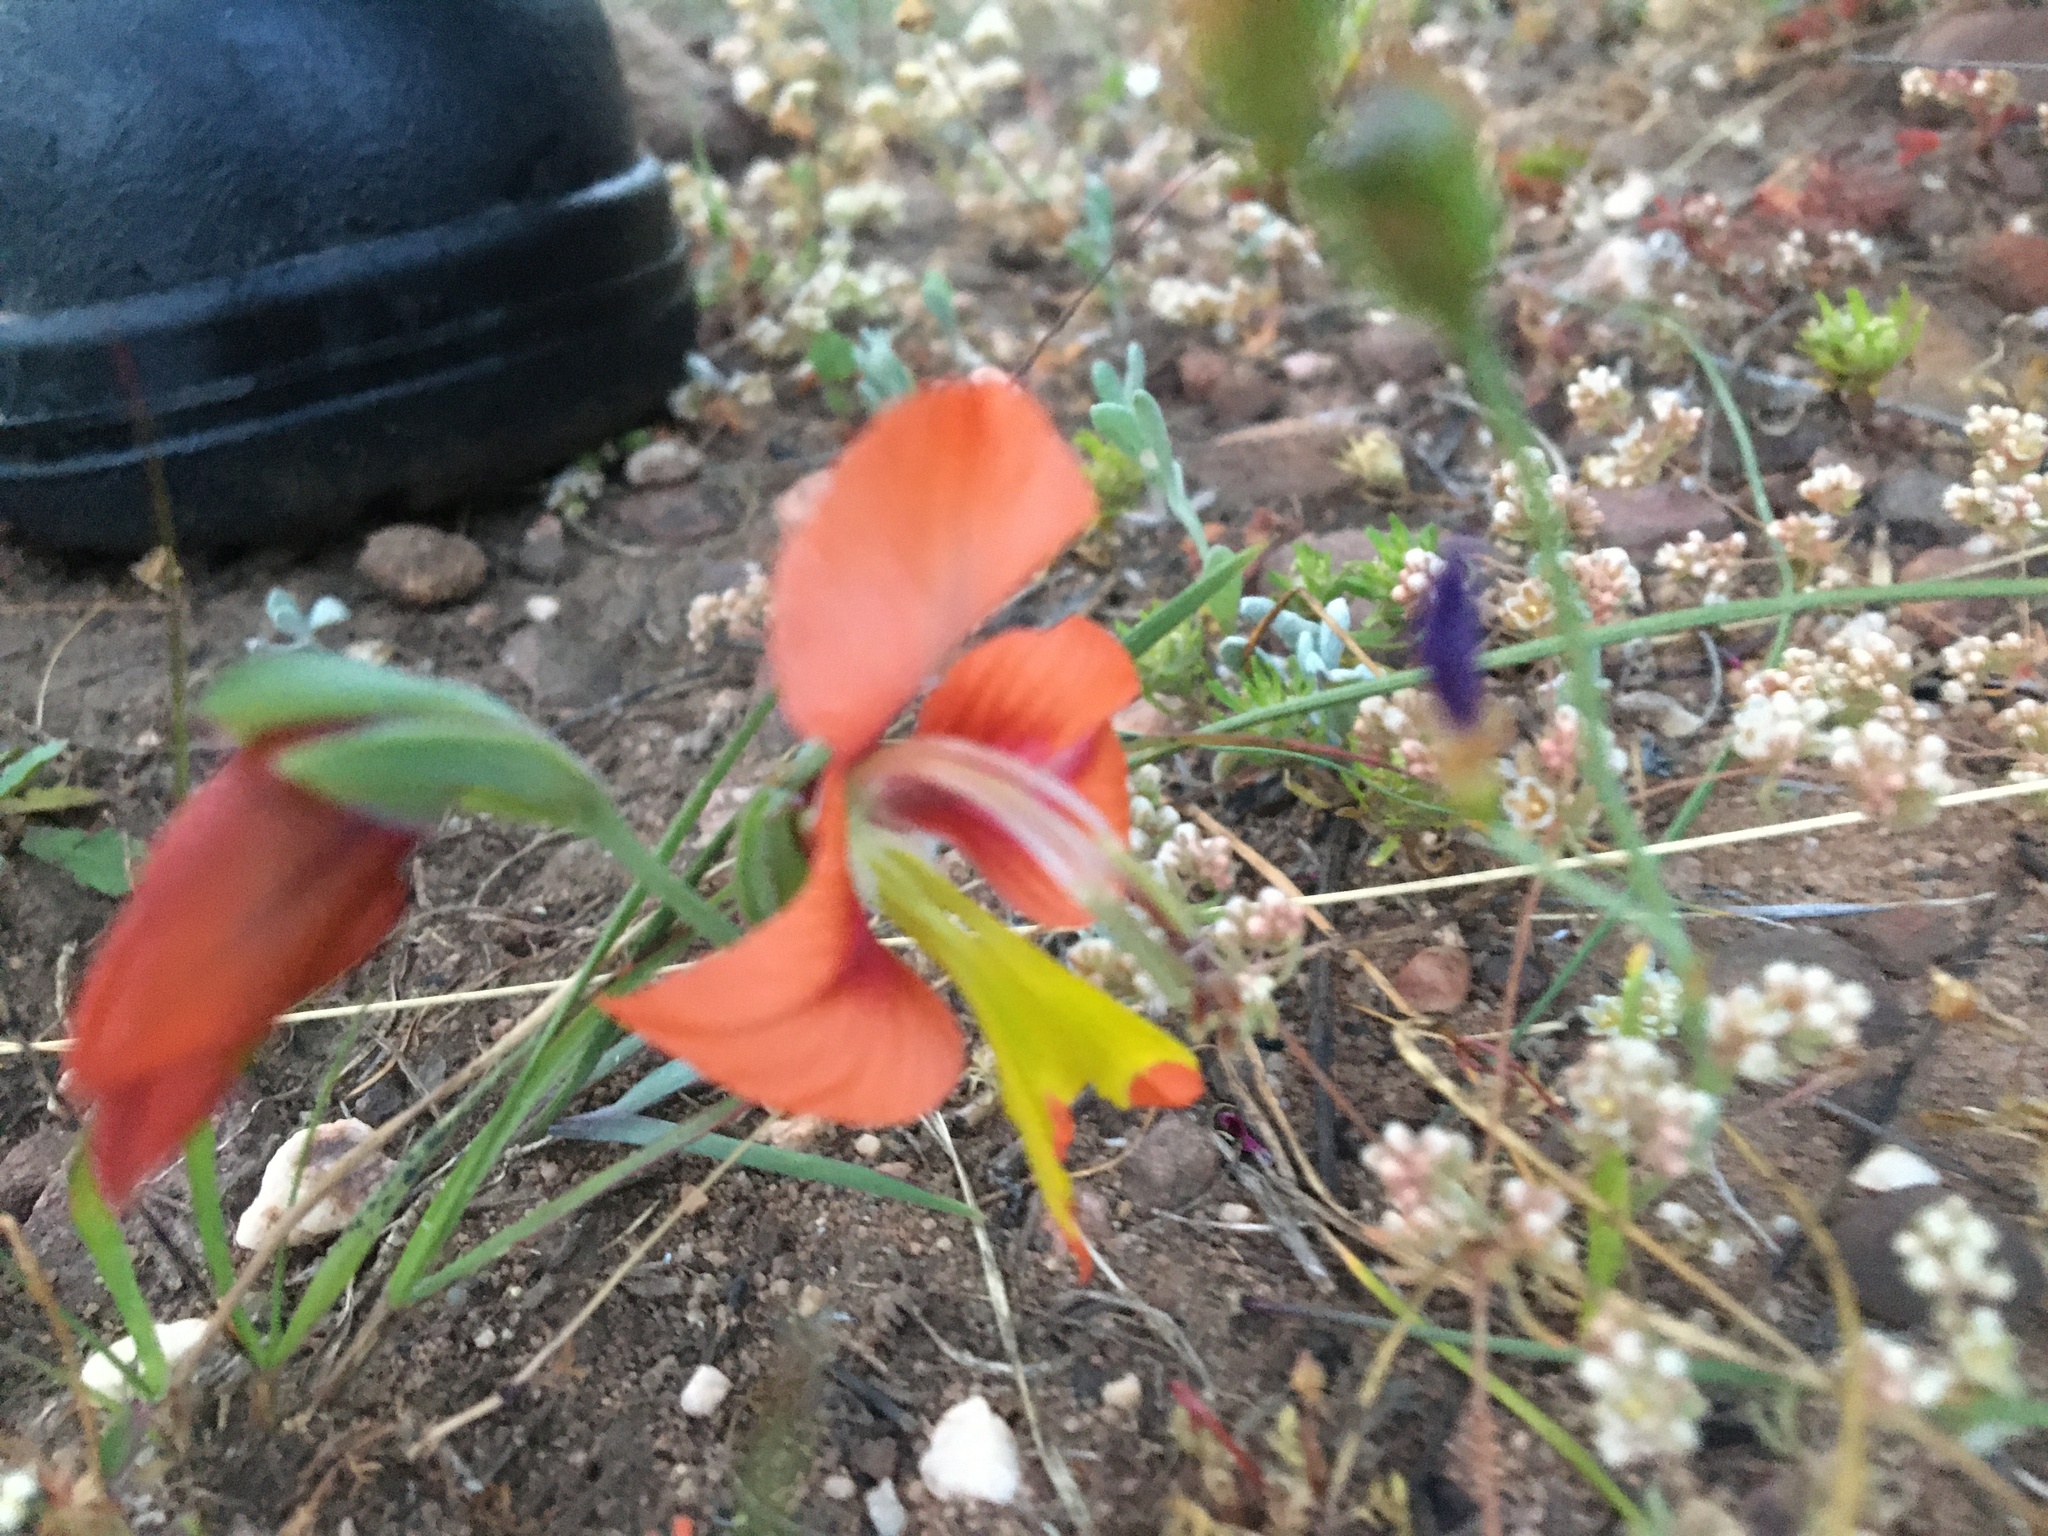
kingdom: Plantae
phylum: Tracheophyta
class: Liliopsida
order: Asparagales
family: Iridaceae
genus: Gladiolus
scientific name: Gladiolus alatus
